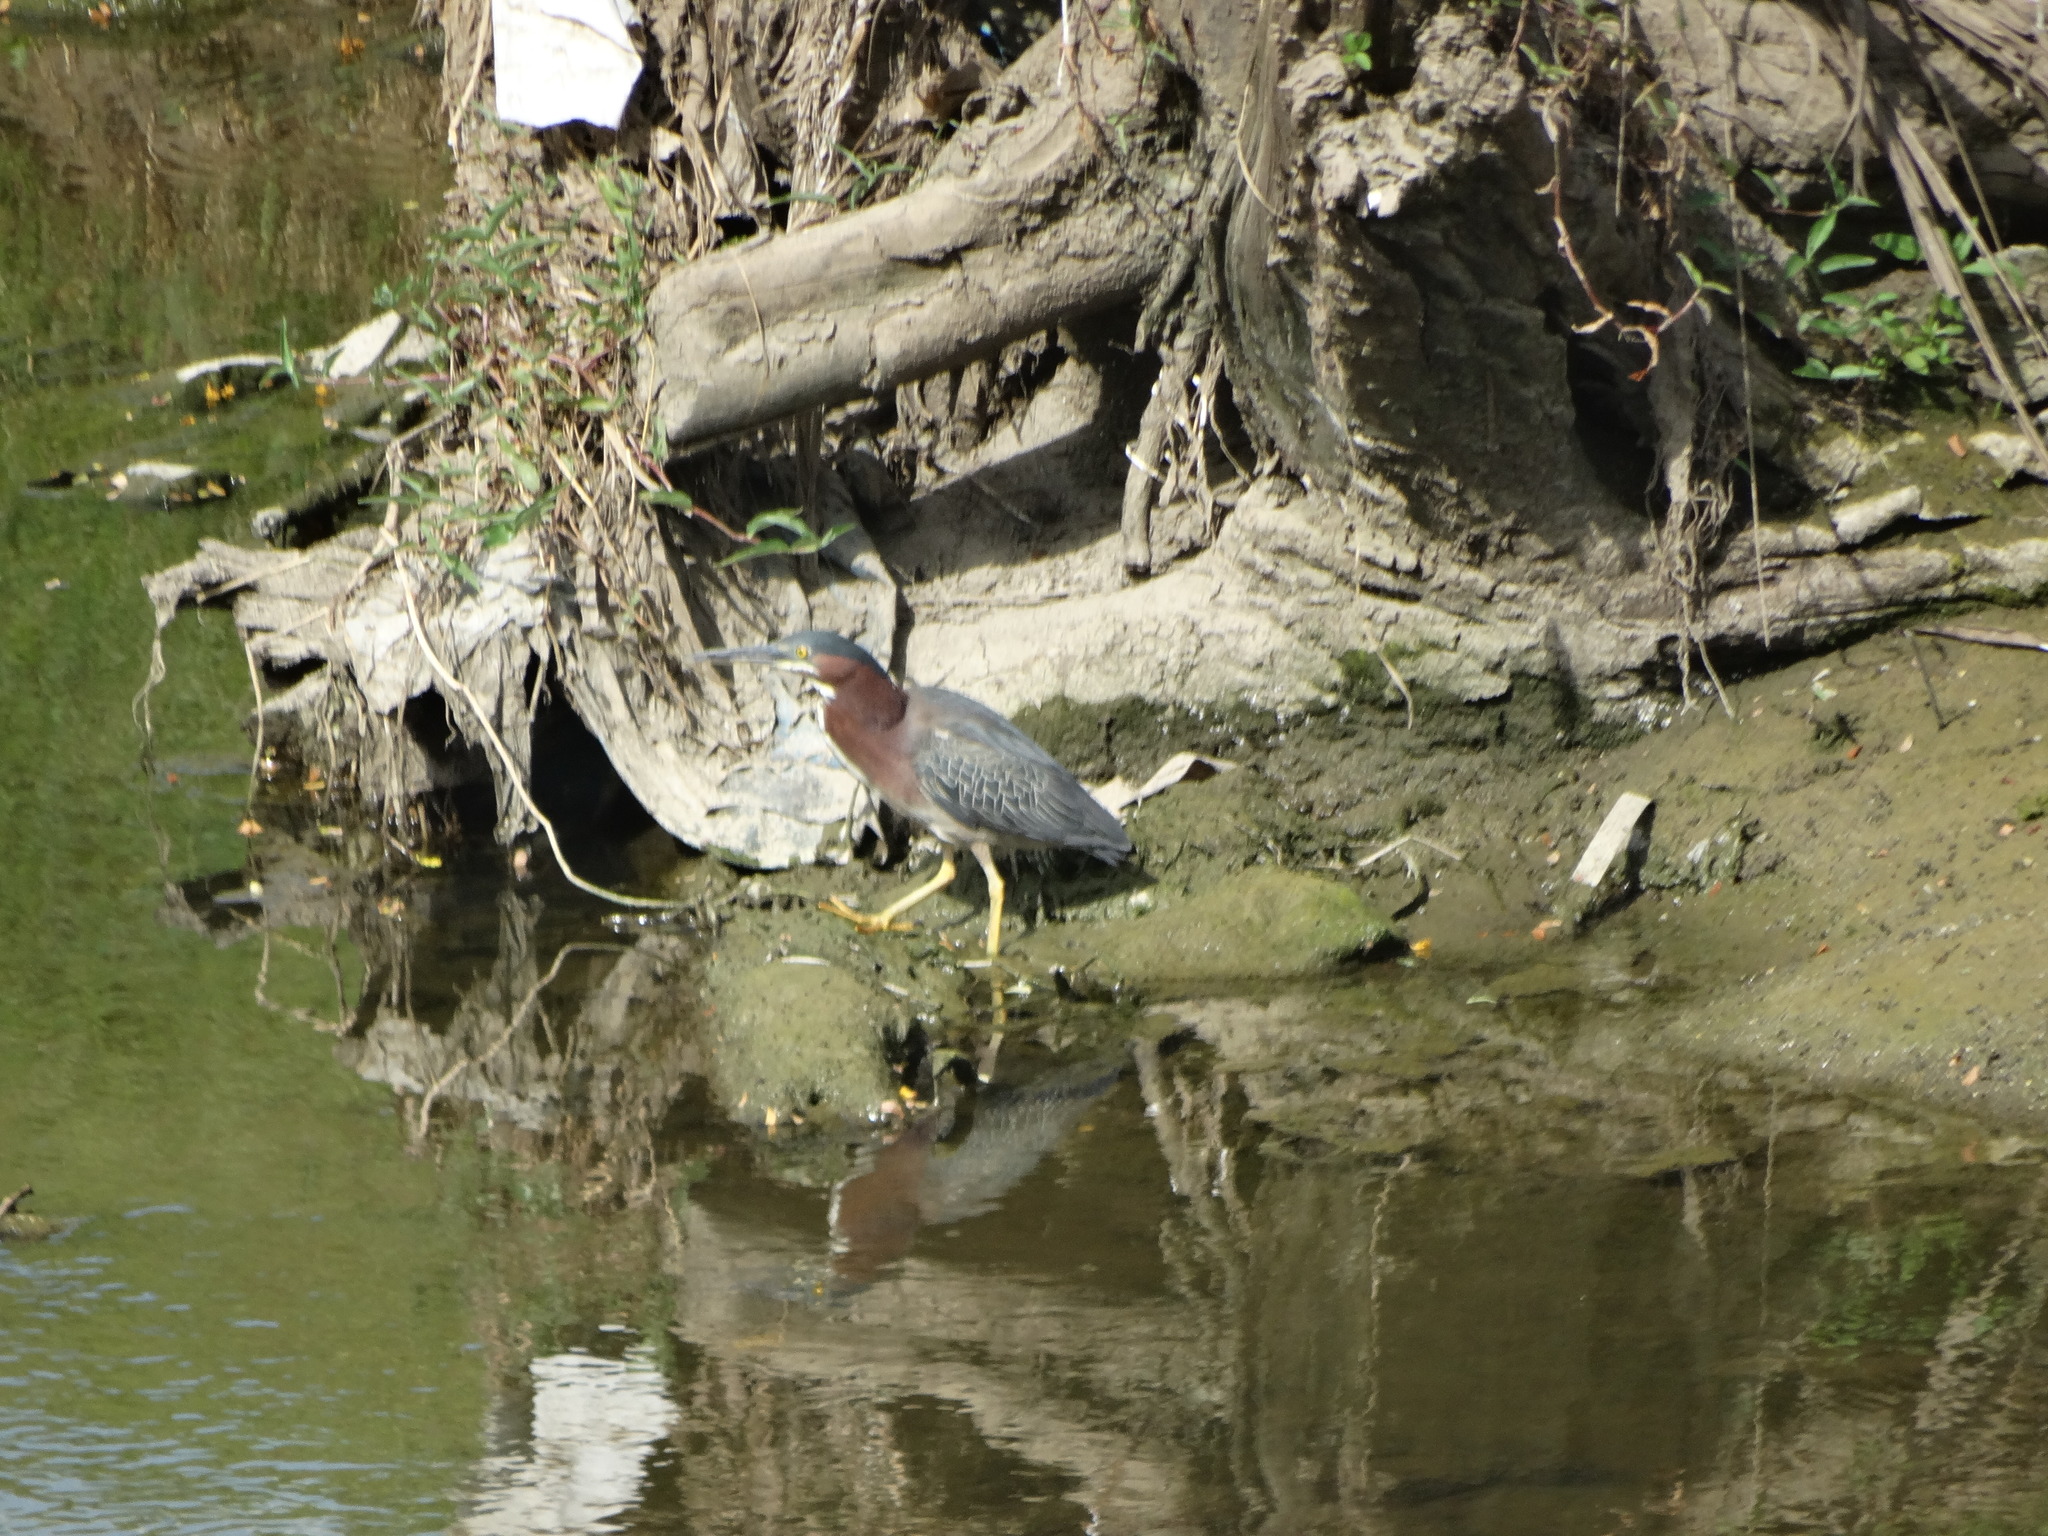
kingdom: Animalia
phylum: Chordata
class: Aves
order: Pelecaniformes
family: Ardeidae
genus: Butorides
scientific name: Butorides virescens
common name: Green heron
